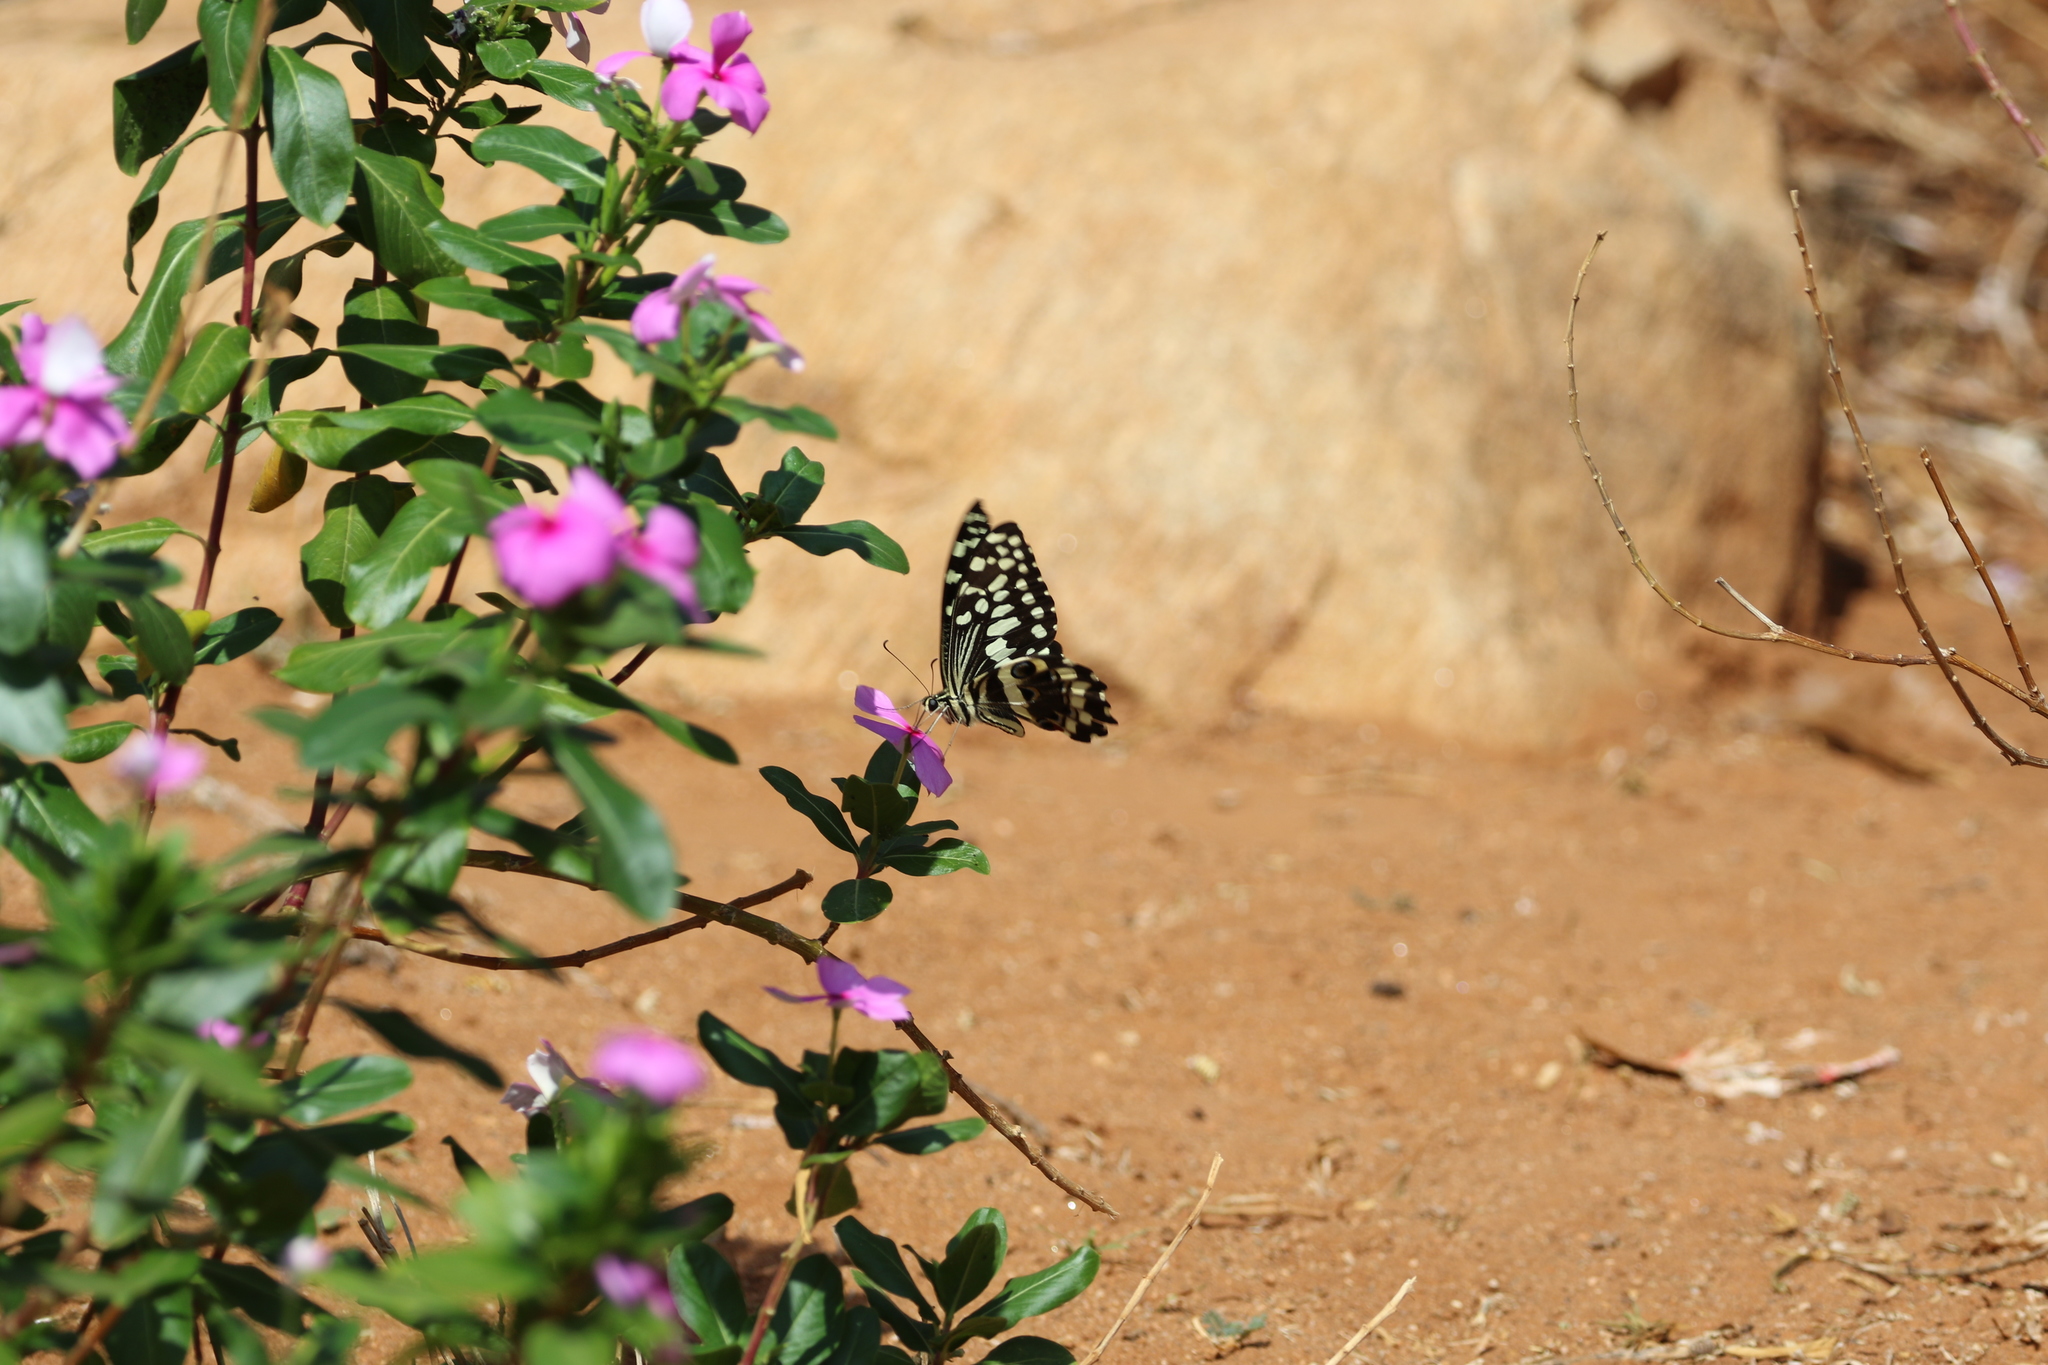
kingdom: Animalia
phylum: Arthropoda
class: Insecta
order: Lepidoptera
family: Papilionidae
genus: Papilio
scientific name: Papilio demodocus
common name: Christmas butterfly
